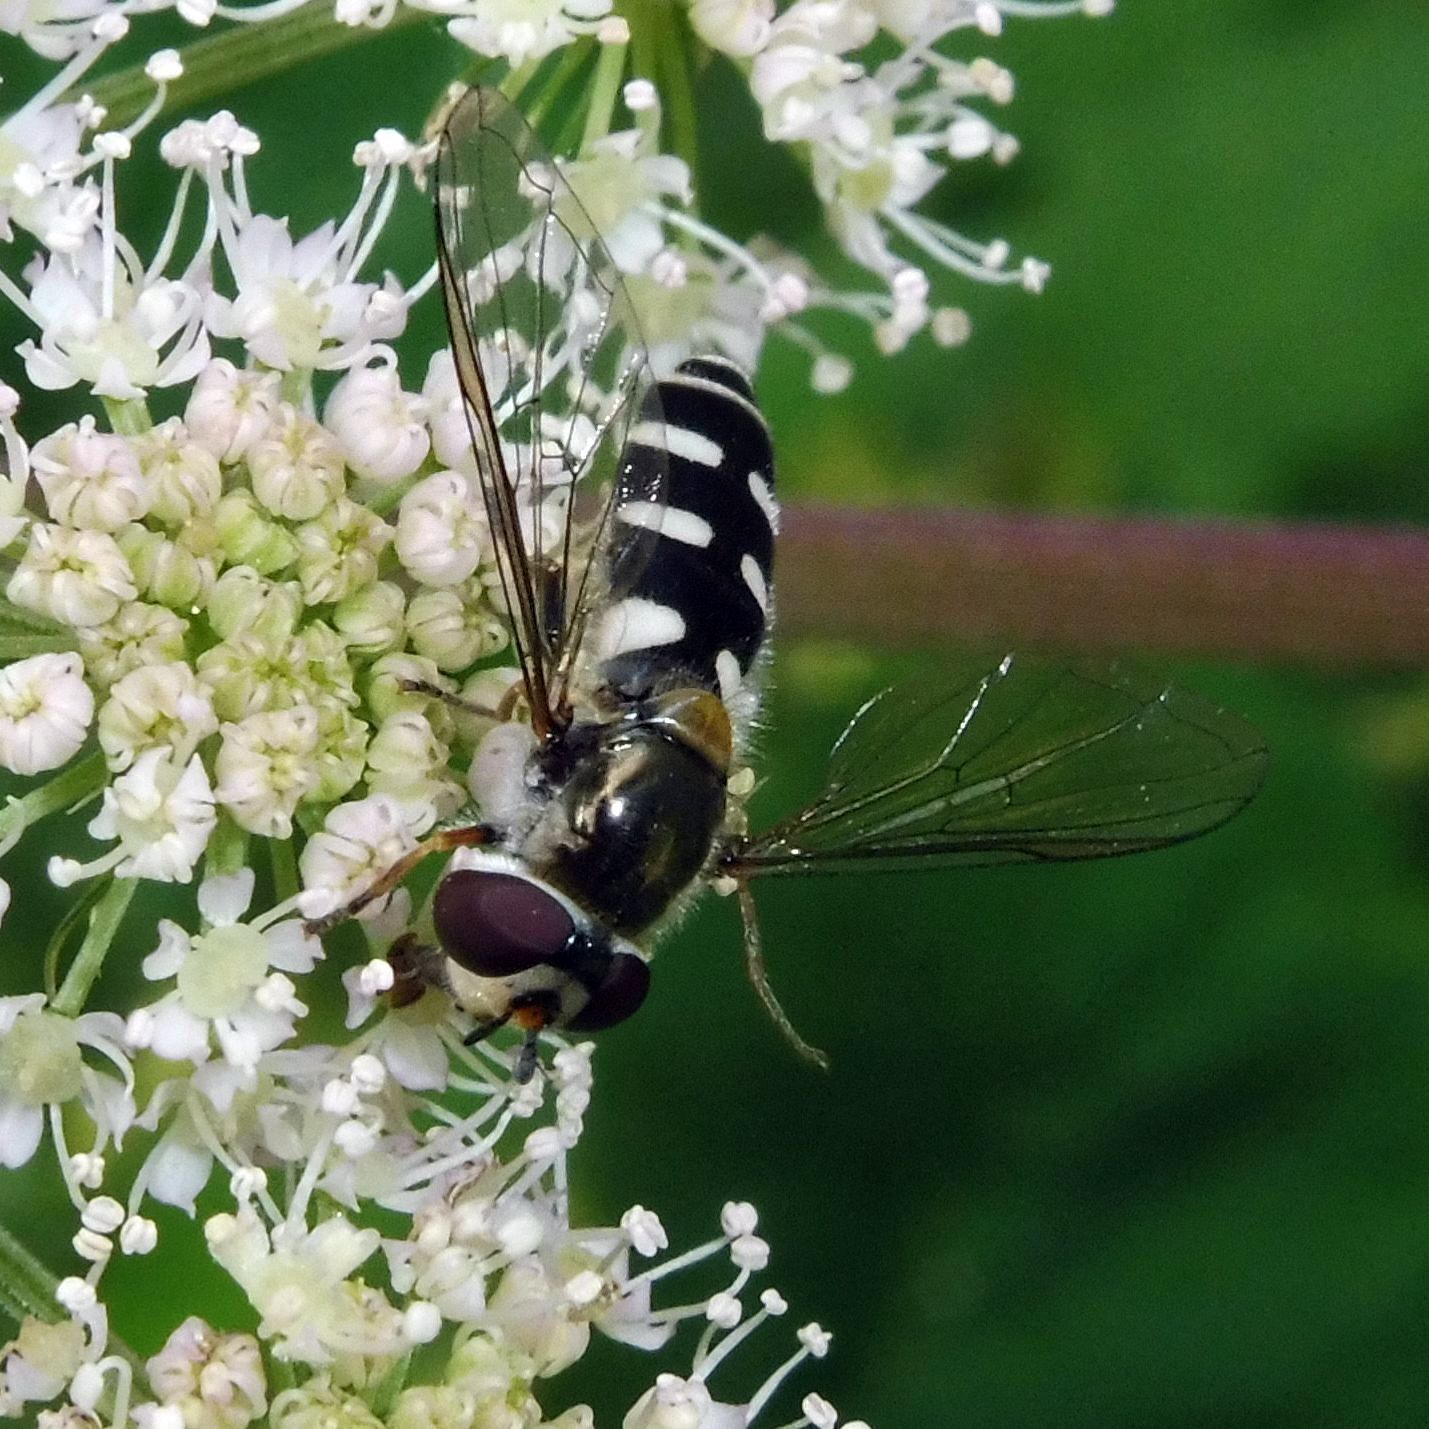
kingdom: Animalia
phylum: Arthropoda
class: Insecta
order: Diptera
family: Syrphidae
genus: Melangyna
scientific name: Melangyna umbellatarum
